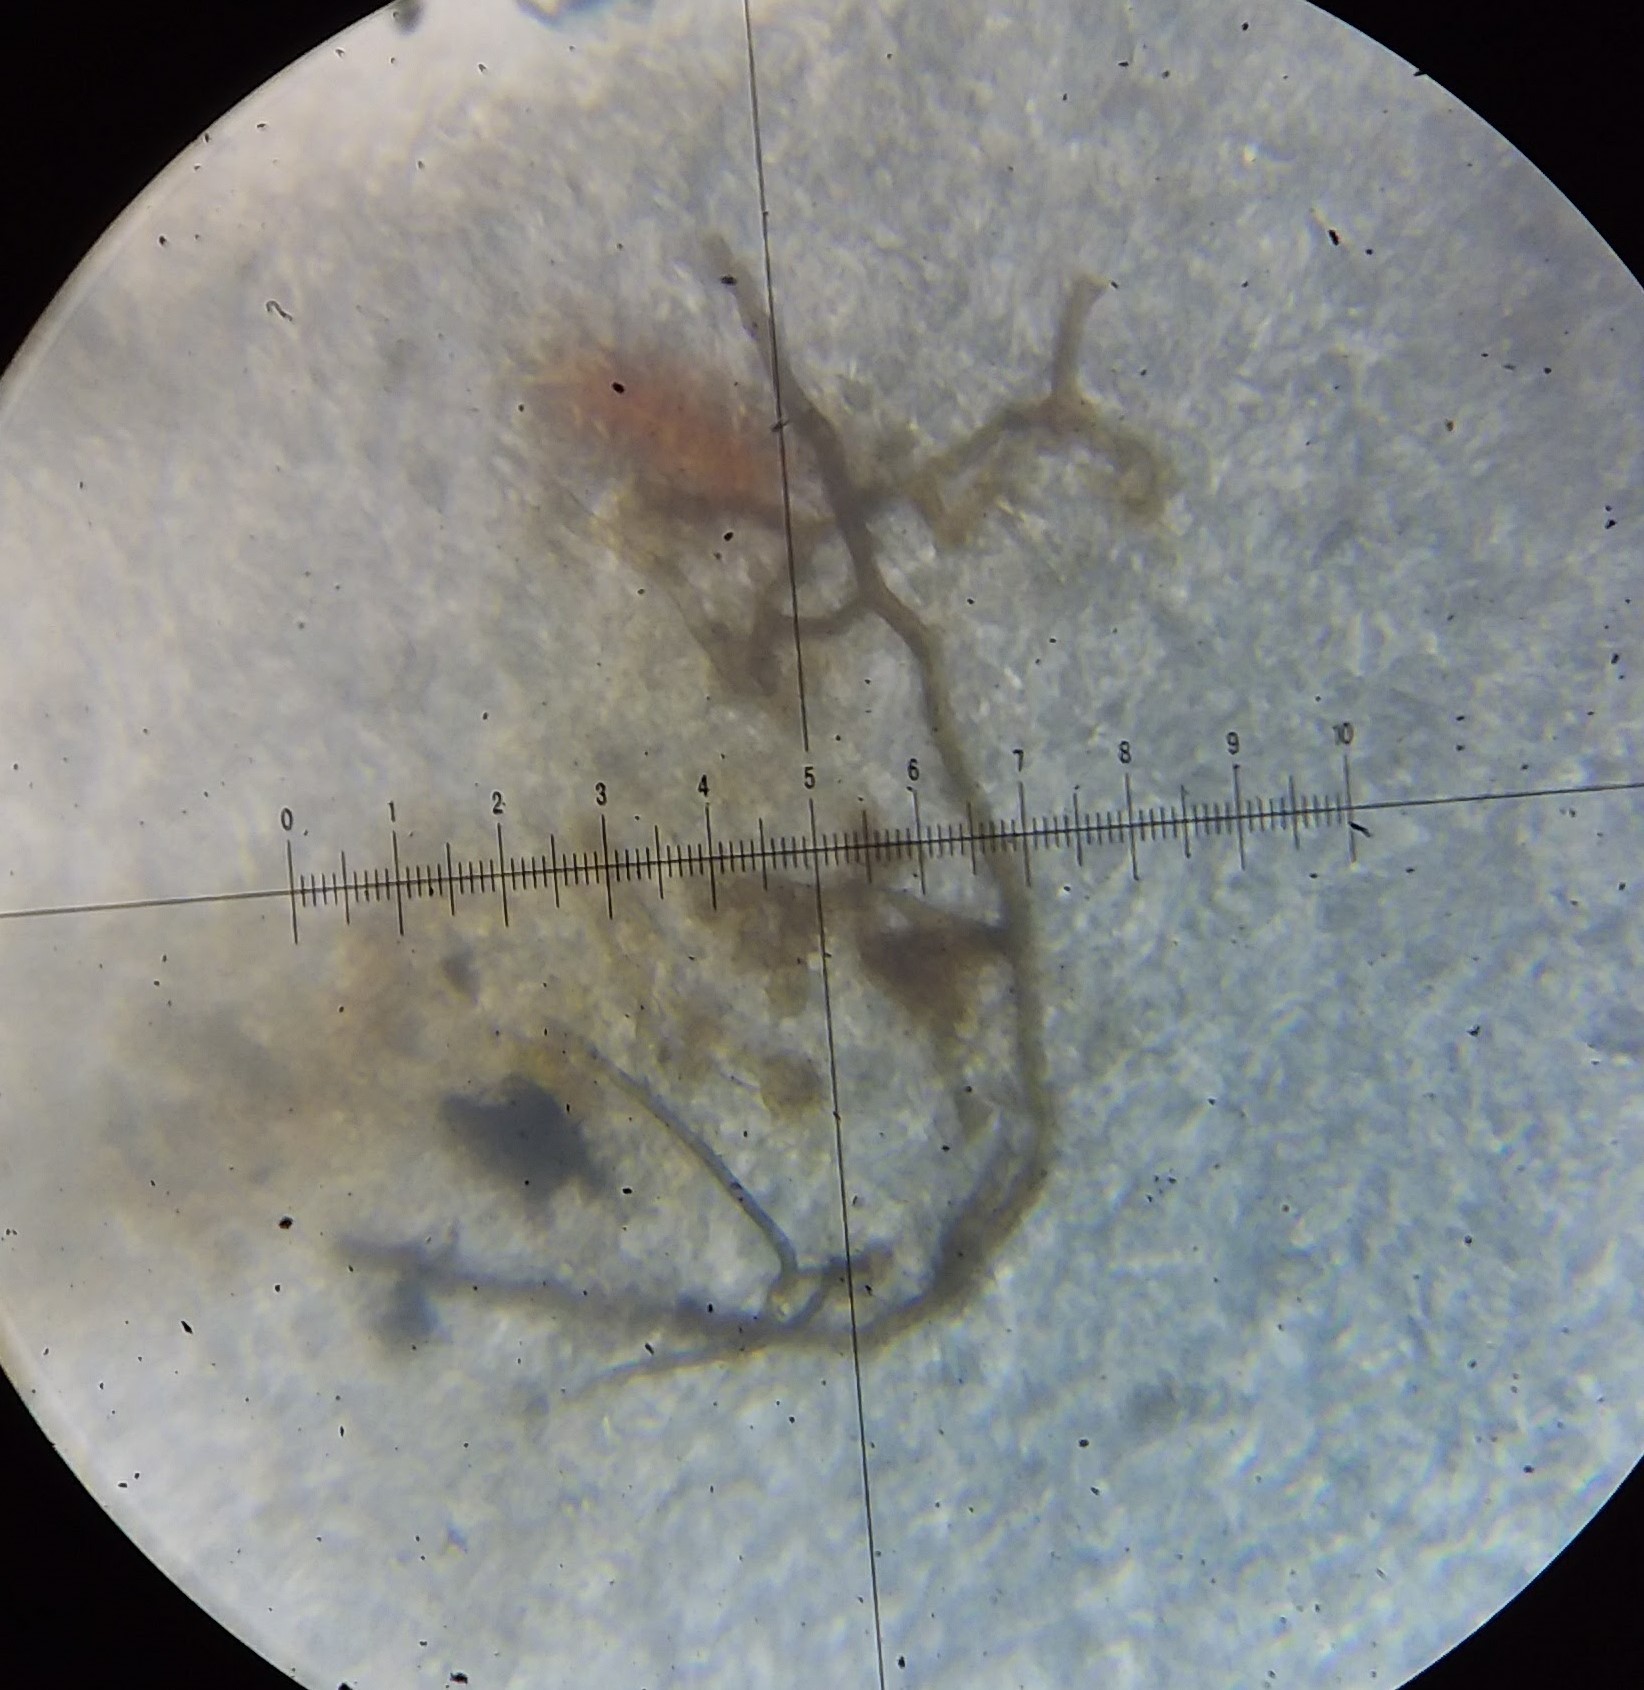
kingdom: Fungi
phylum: Basidiomycota
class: Agaricomycetes
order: Polyporales
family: Polyporaceae
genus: Trametes
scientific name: Trametes lactinea
